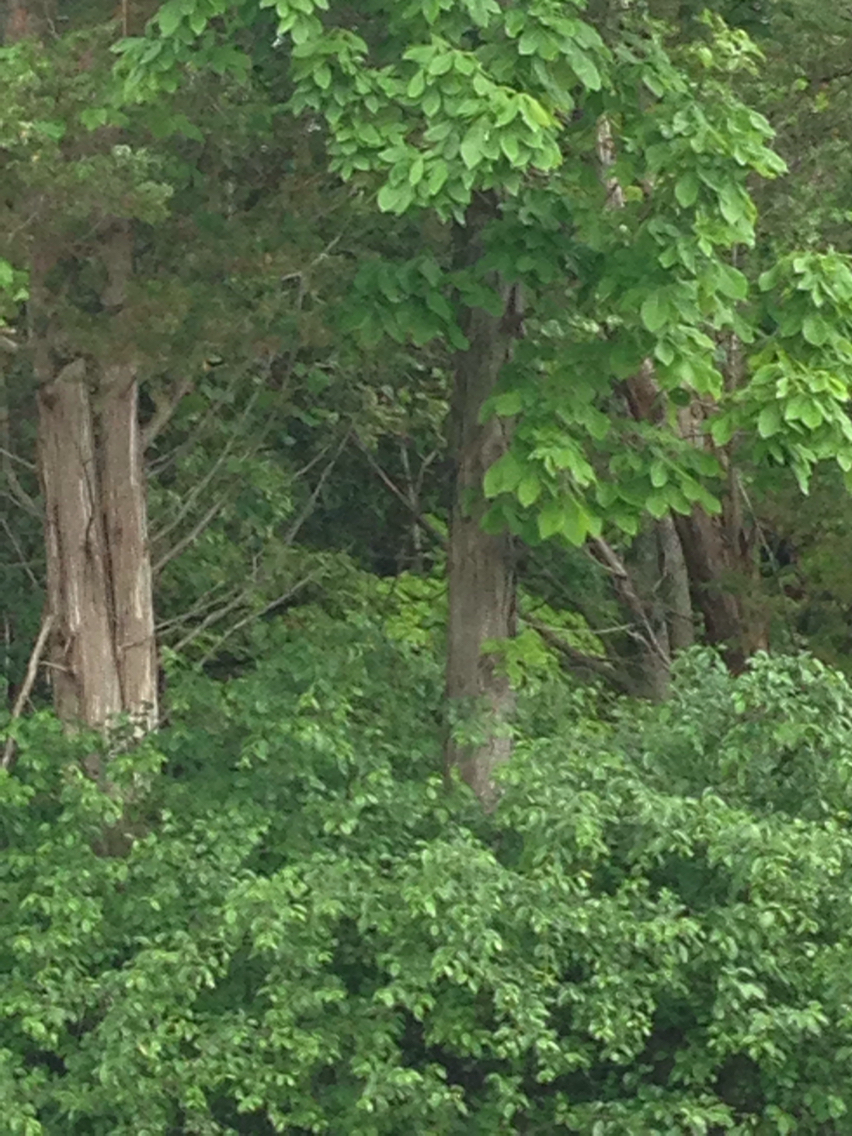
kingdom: Plantae
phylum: Tracheophyta
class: Magnoliopsida
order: Fagales
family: Juglandaceae
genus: Carya
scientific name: Carya ovata
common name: Shagbark hickory
